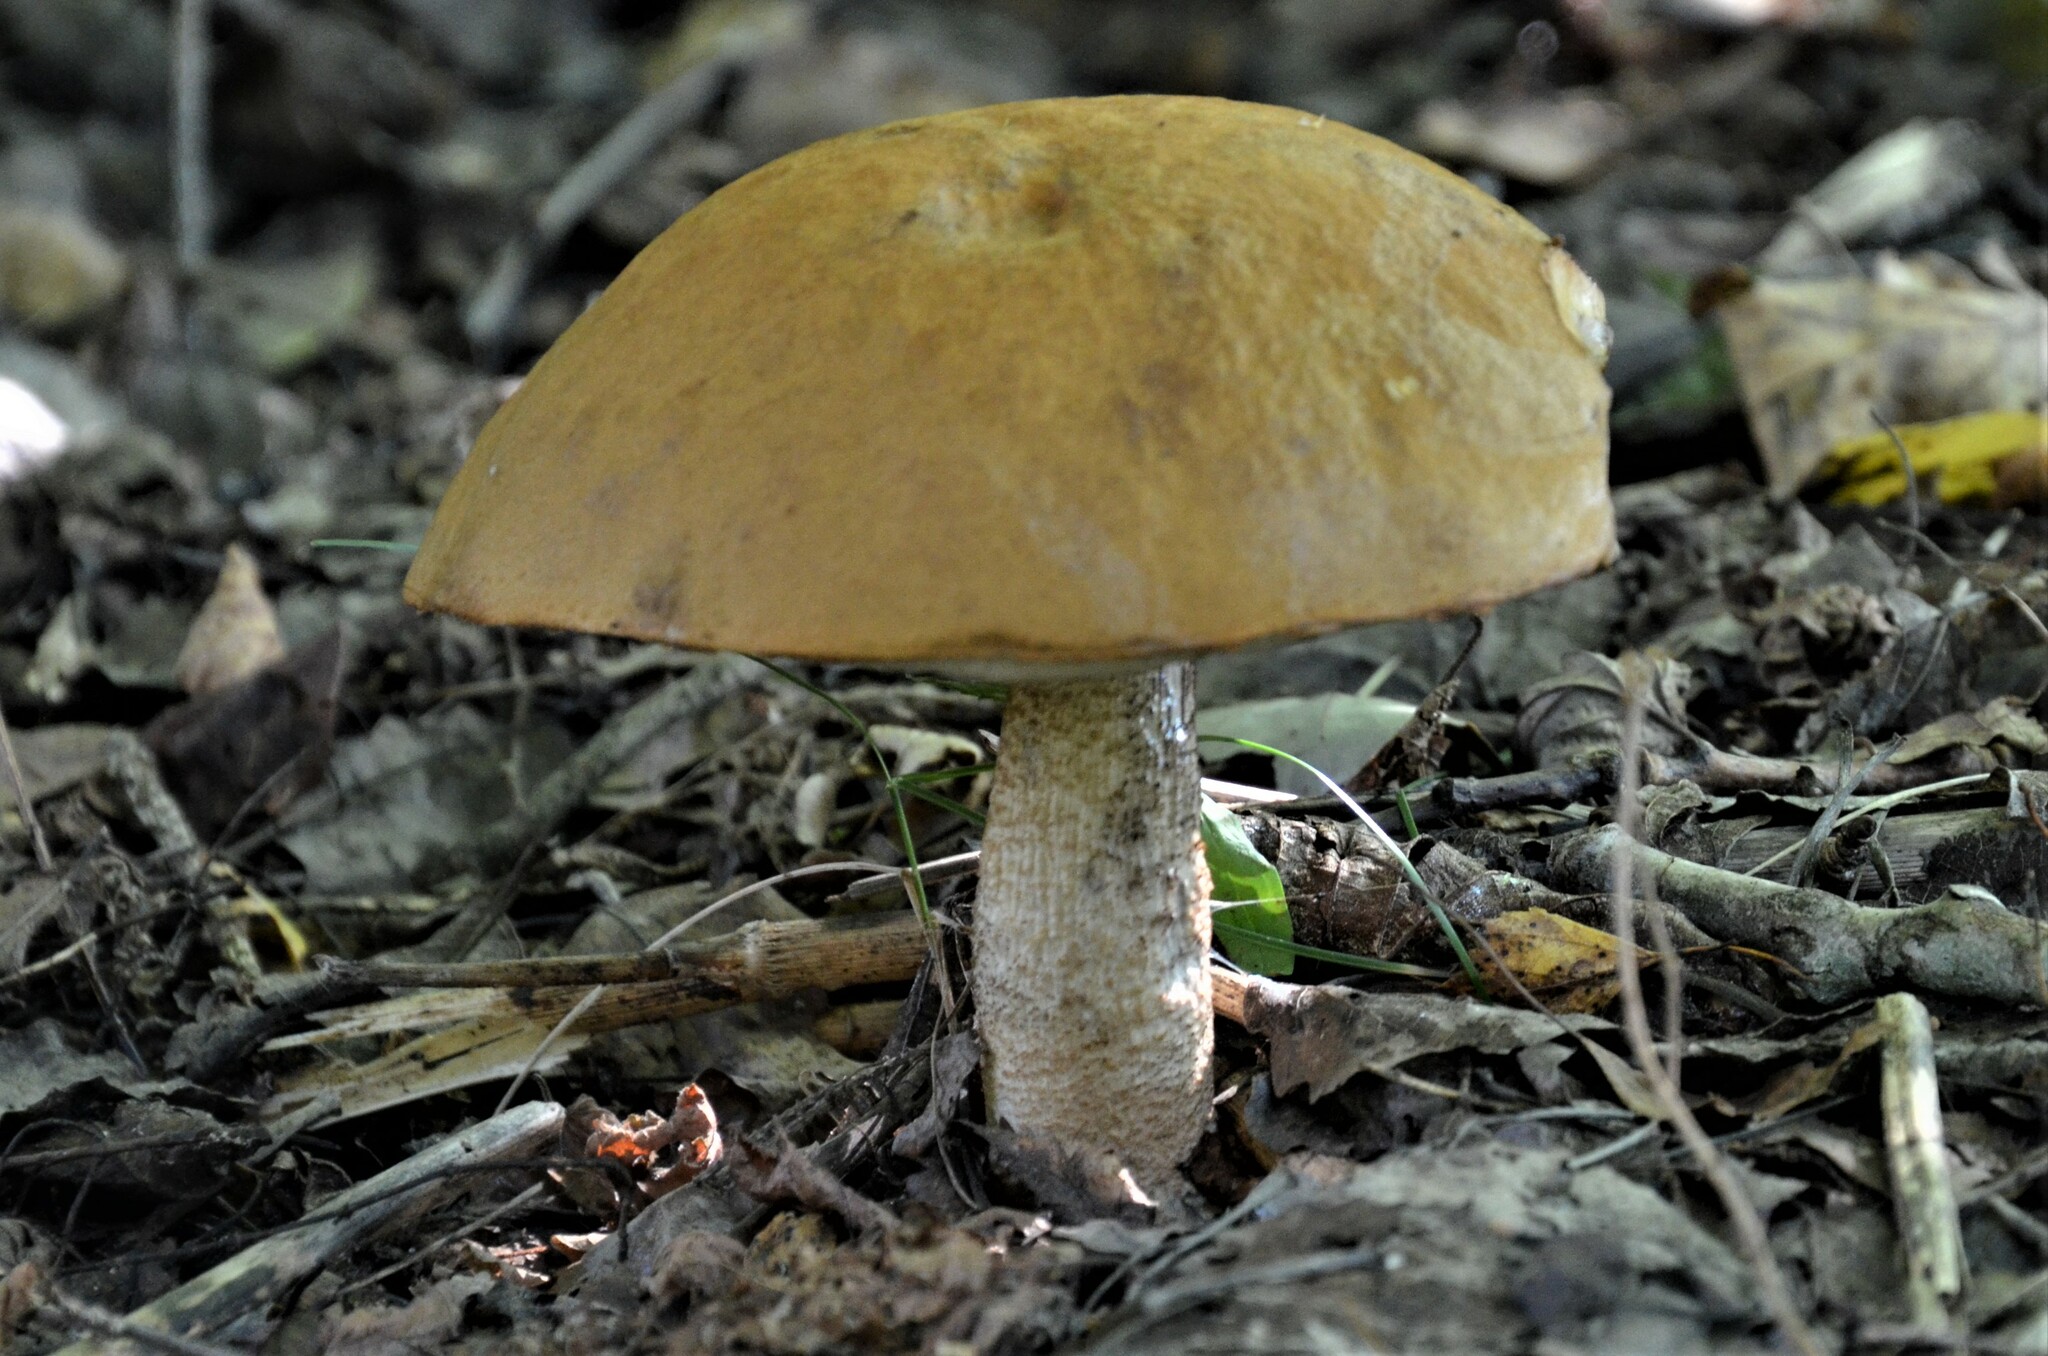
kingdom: Fungi
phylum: Basidiomycota
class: Agaricomycetes
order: Boletales
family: Boletaceae
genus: Leccinum
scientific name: Leccinum albostipitatum
